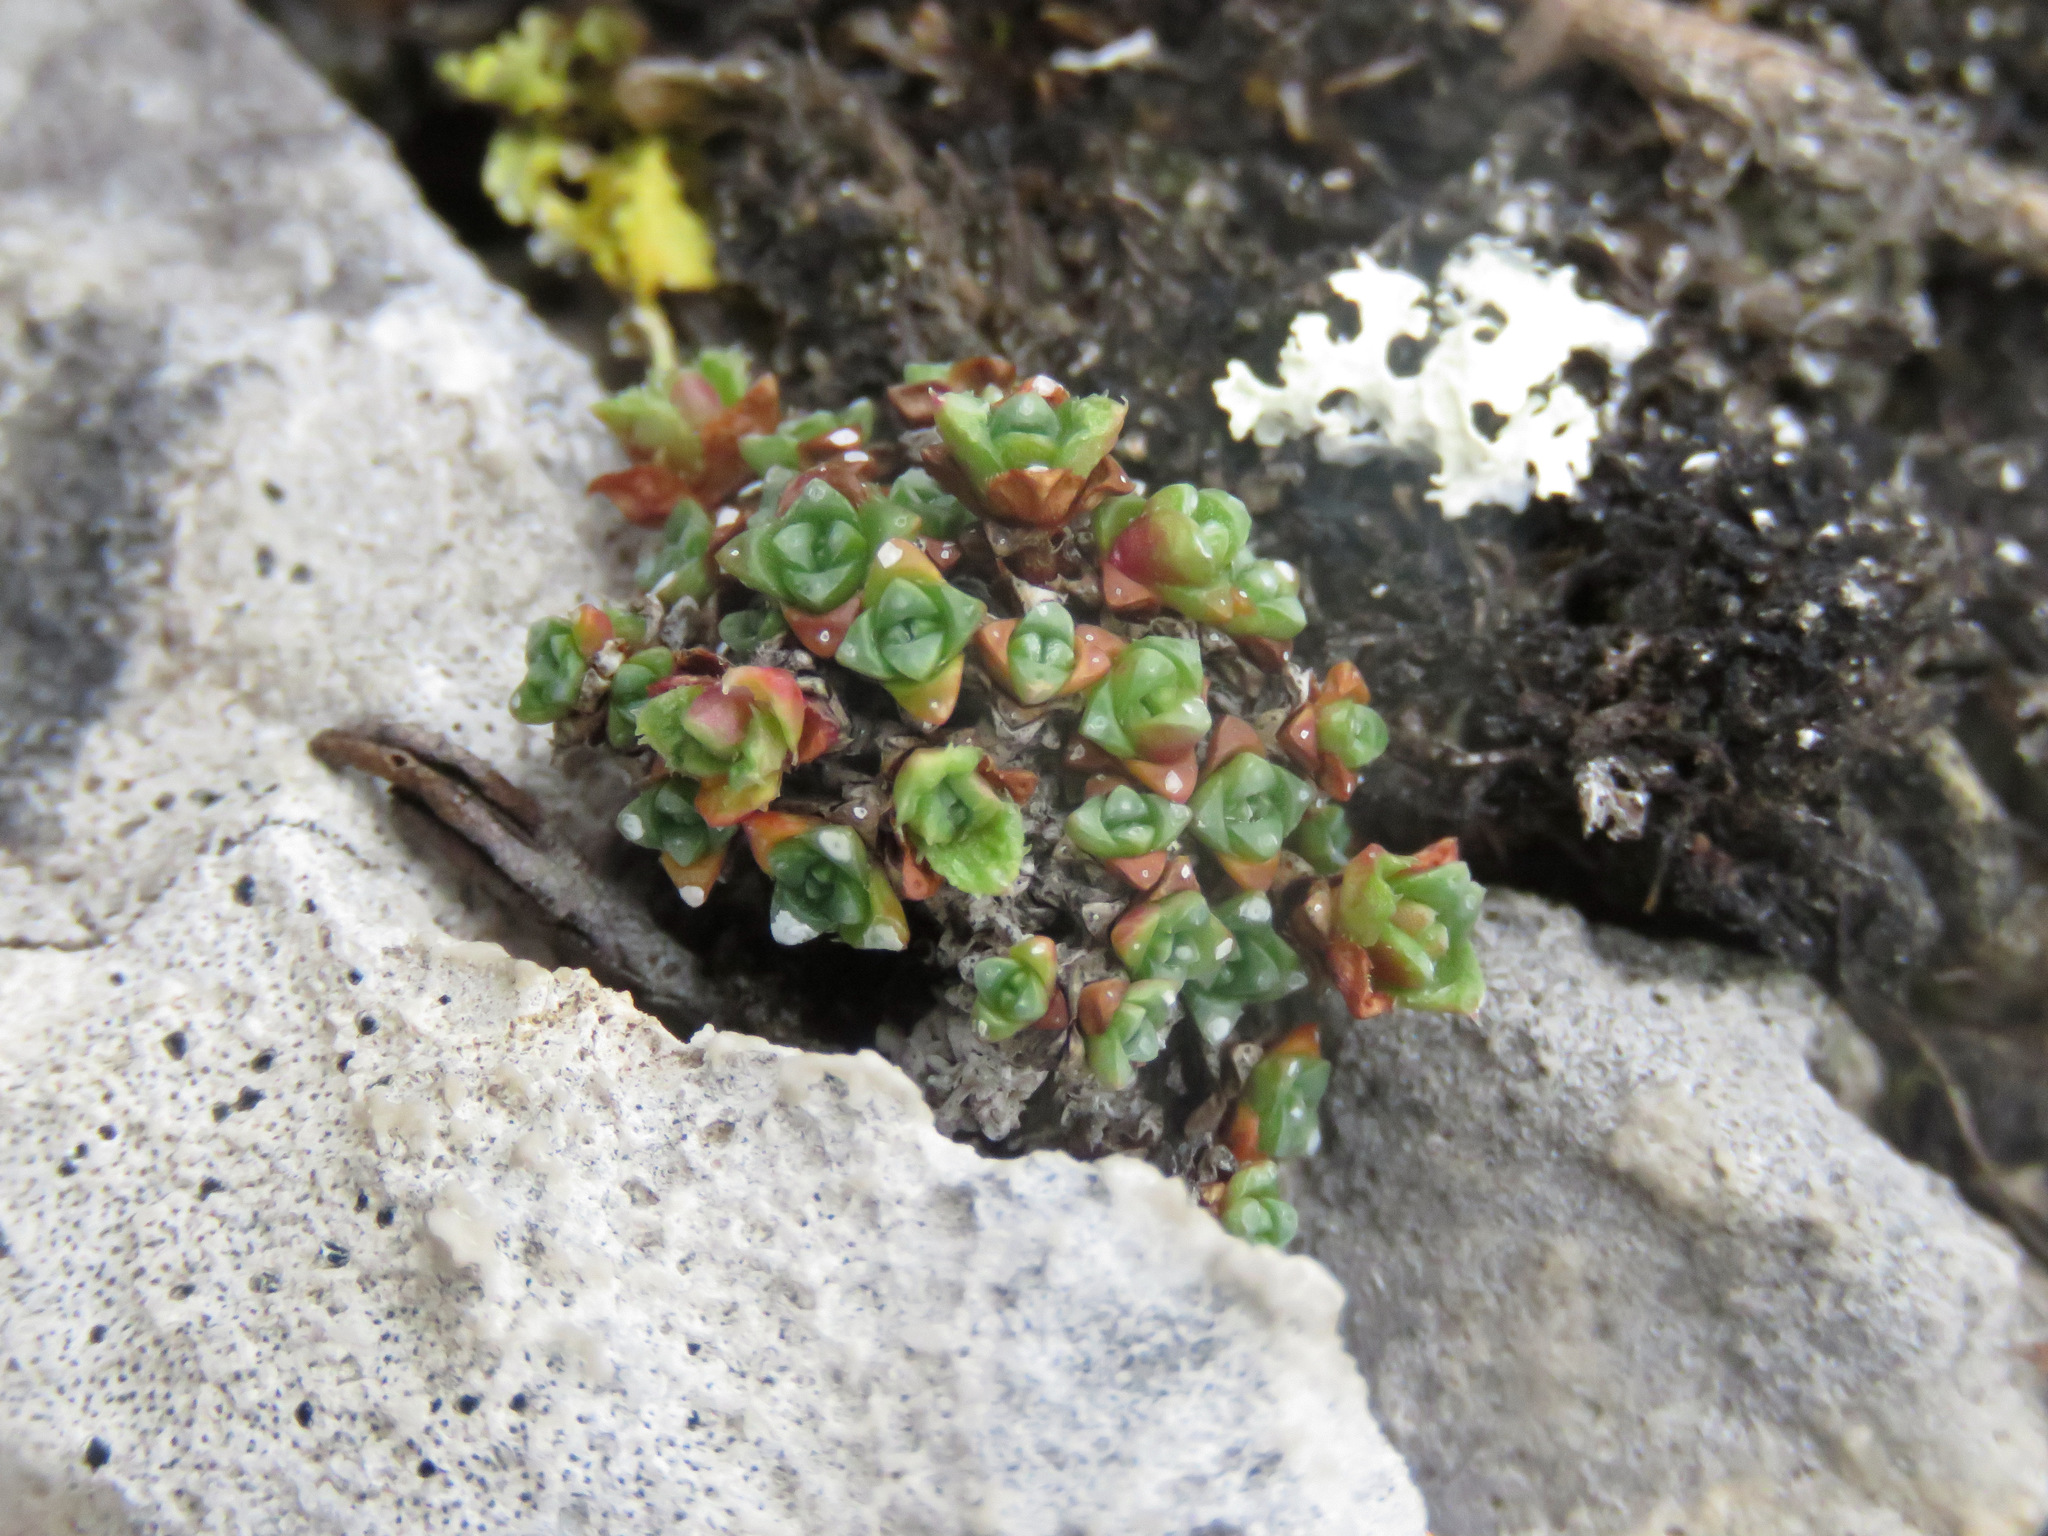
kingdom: Plantae
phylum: Tracheophyta
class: Magnoliopsida
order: Saxifragales
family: Saxifragaceae
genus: Saxifraga
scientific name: Saxifraga oppositifolia
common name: Purple saxifrage
